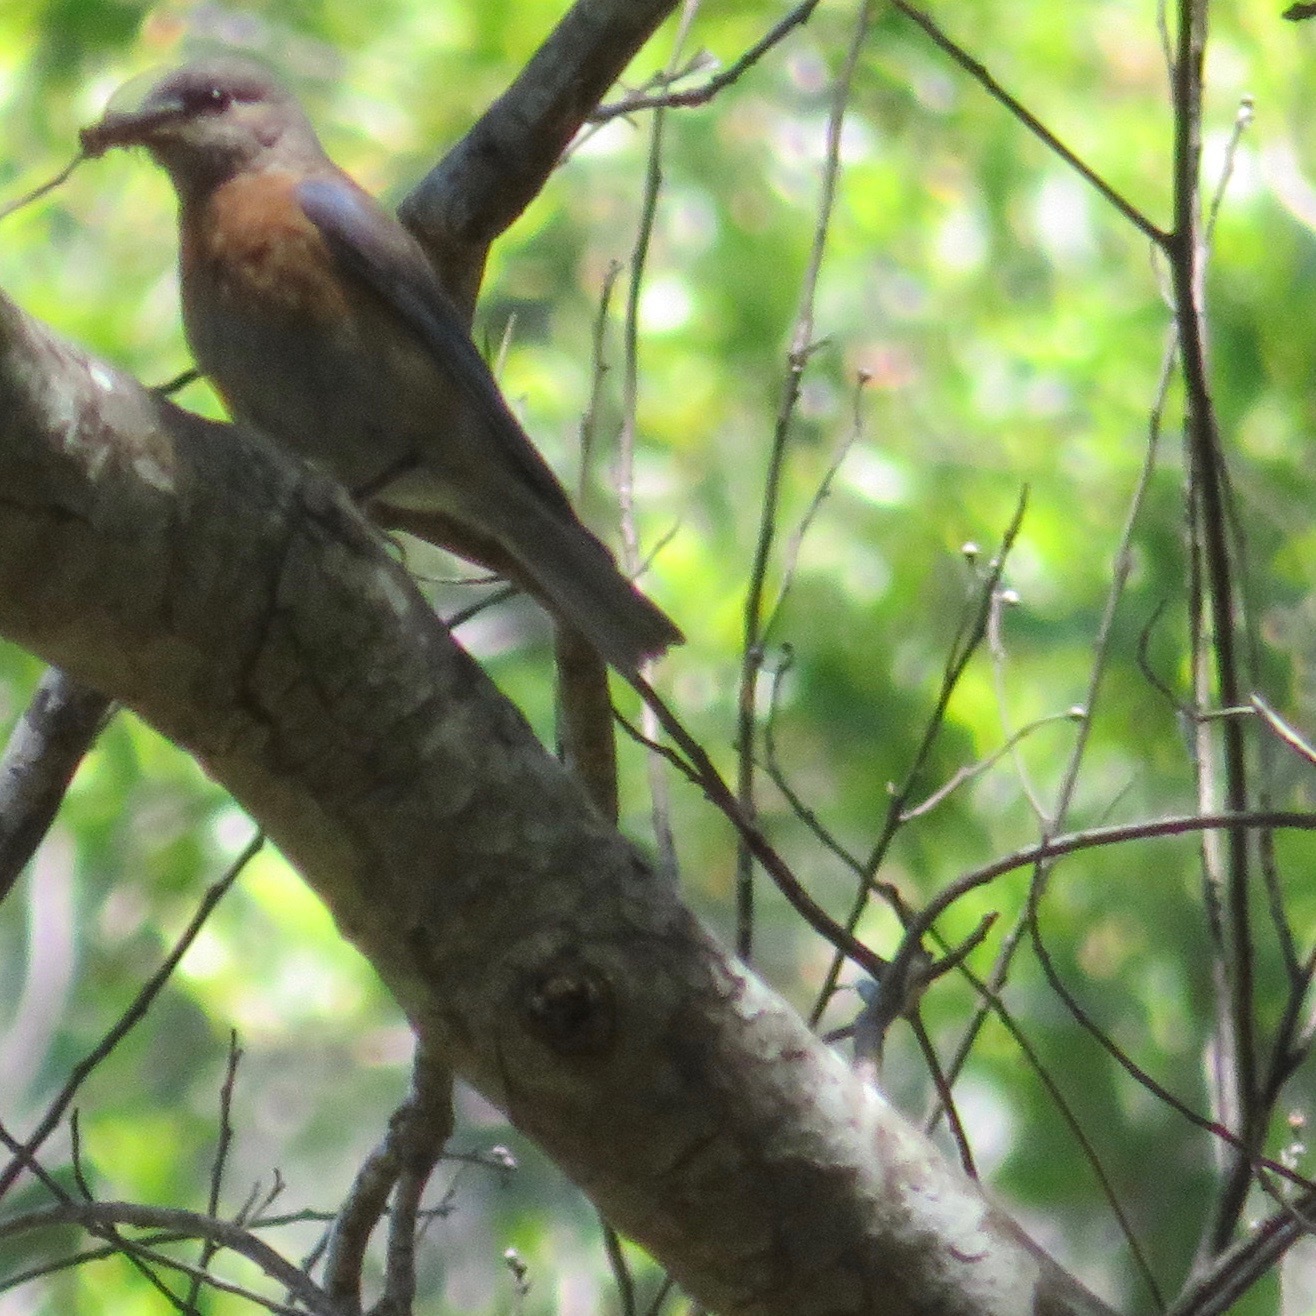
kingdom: Animalia
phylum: Chordata
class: Aves
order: Passeriformes
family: Turdidae
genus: Sialia
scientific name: Sialia mexicana
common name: Western bluebird
